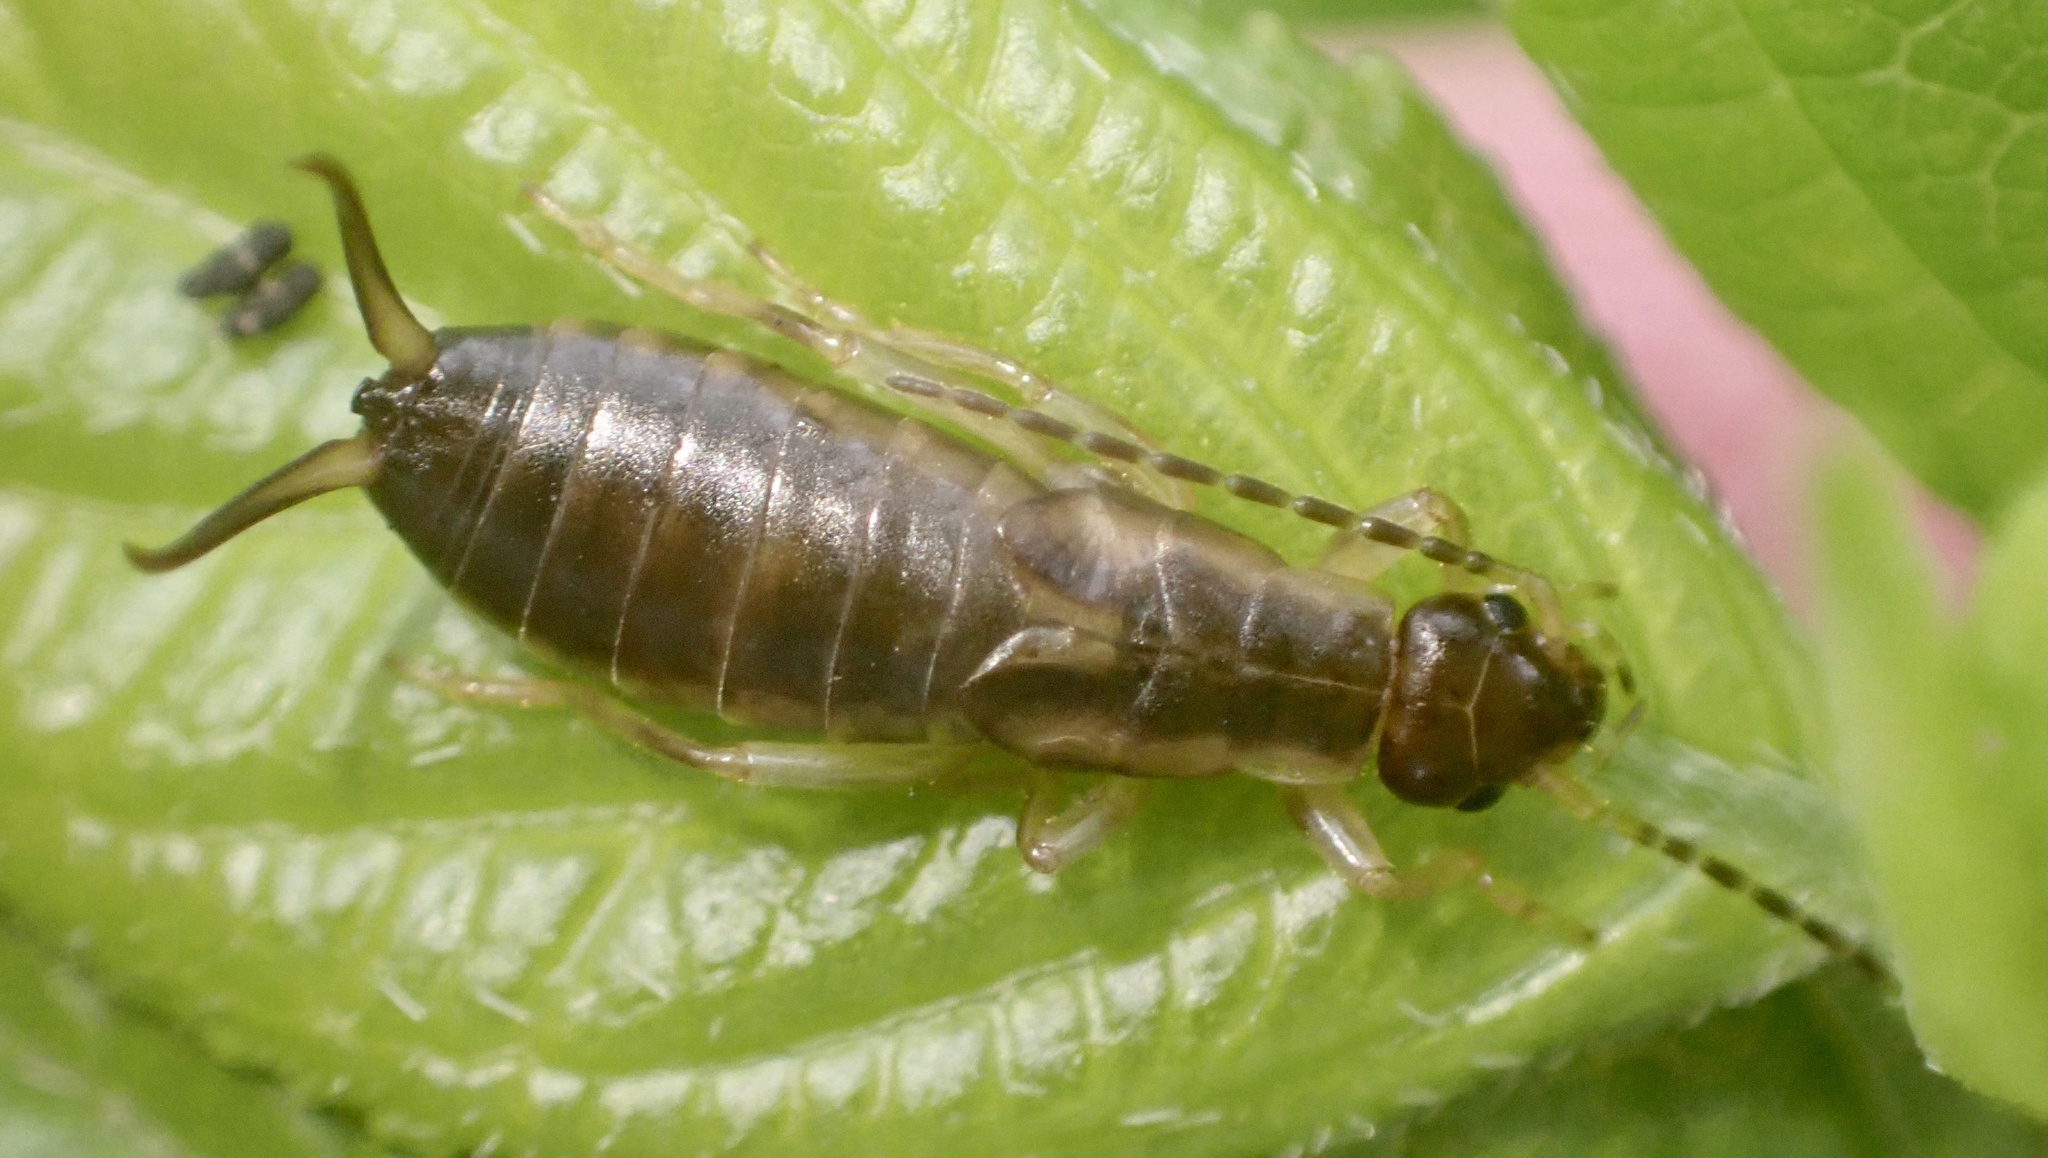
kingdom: Animalia
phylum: Arthropoda
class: Insecta
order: Dermaptera
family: Forficulidae
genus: Forficula
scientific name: Forficula
